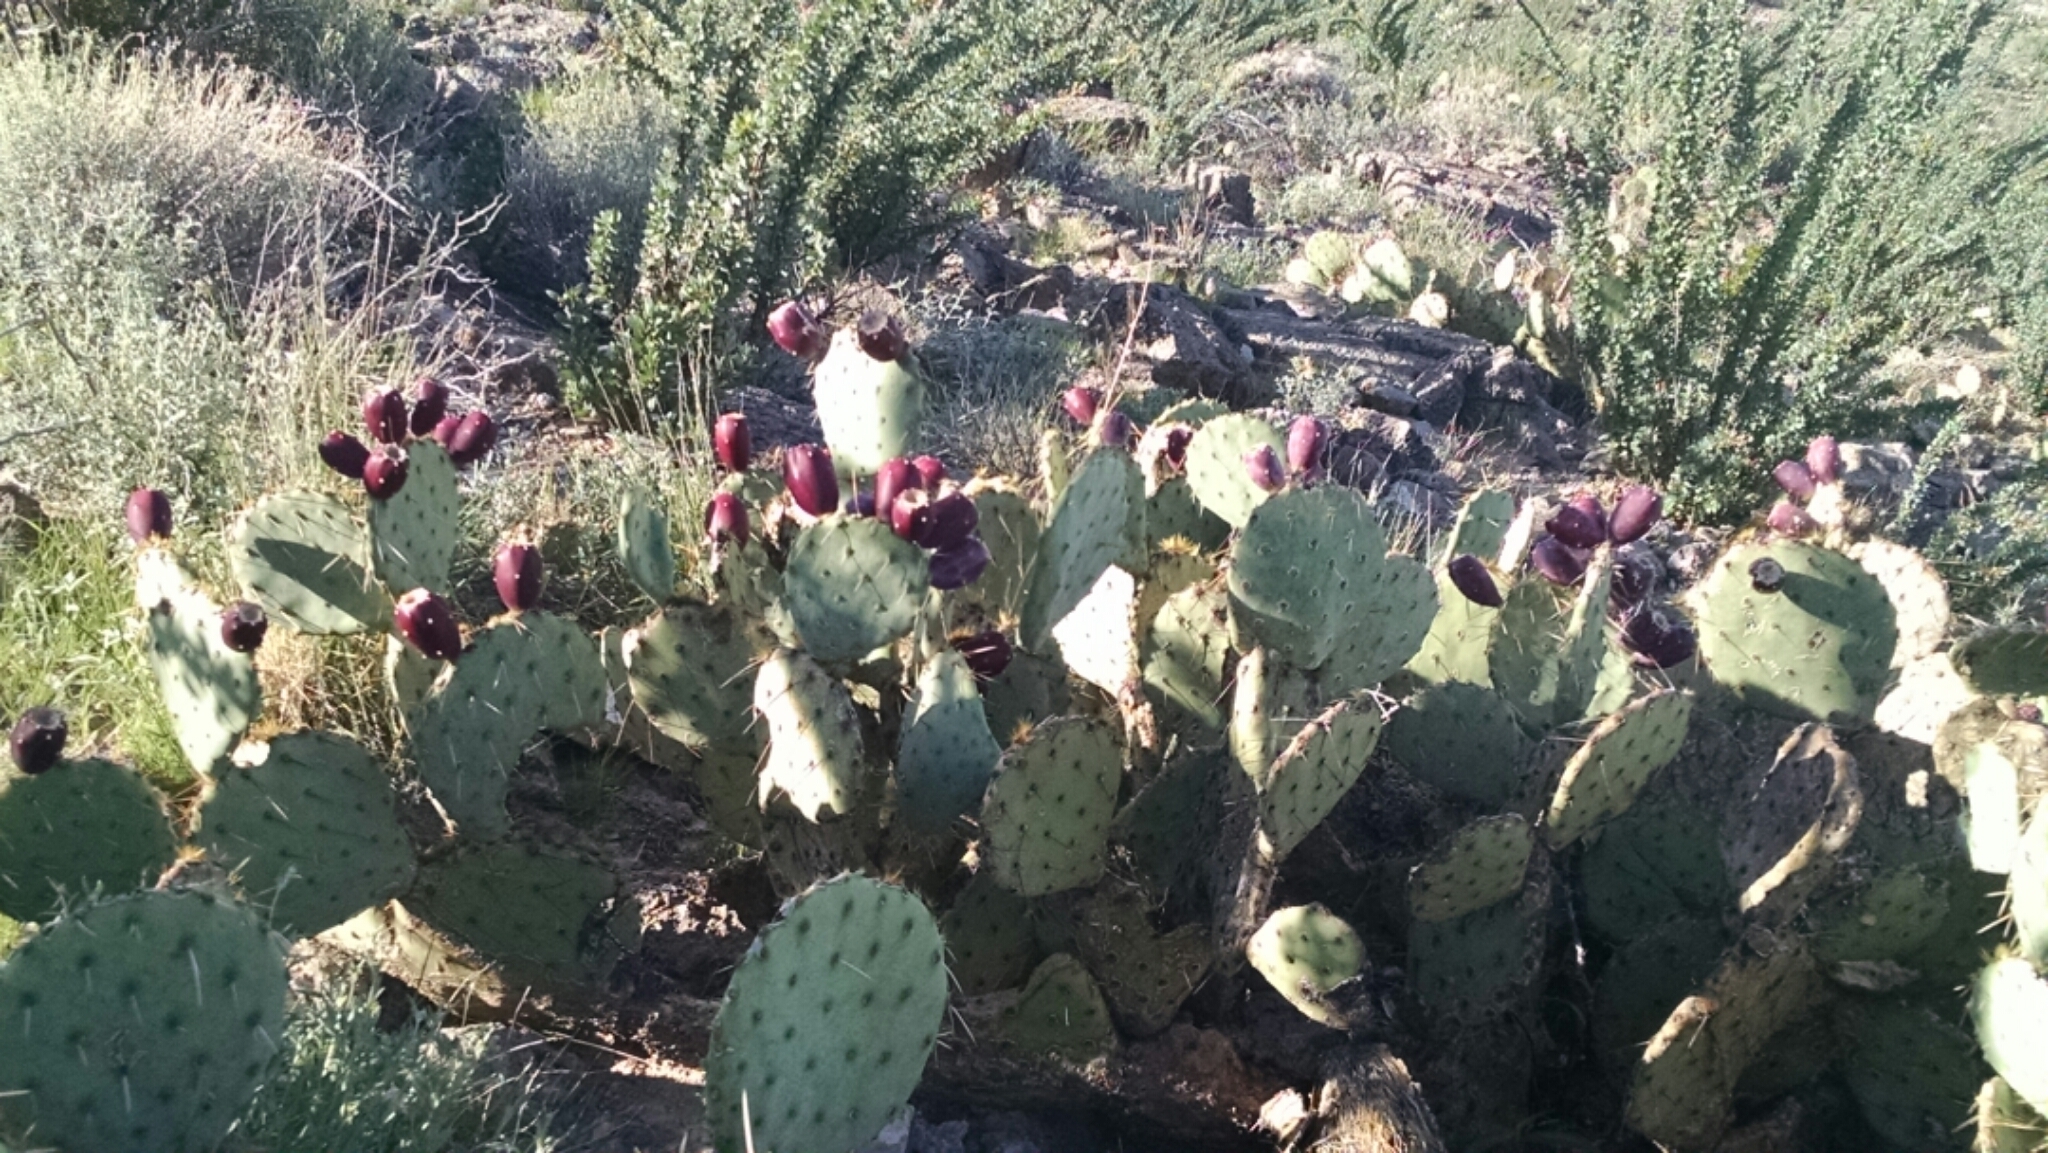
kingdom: Plantae
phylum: Tracheophyta
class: Magnoliopsida
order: Caryophyllales
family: Cactaceae
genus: Opuntia
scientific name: Opuntia engelmannii
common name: Cactus-apple
